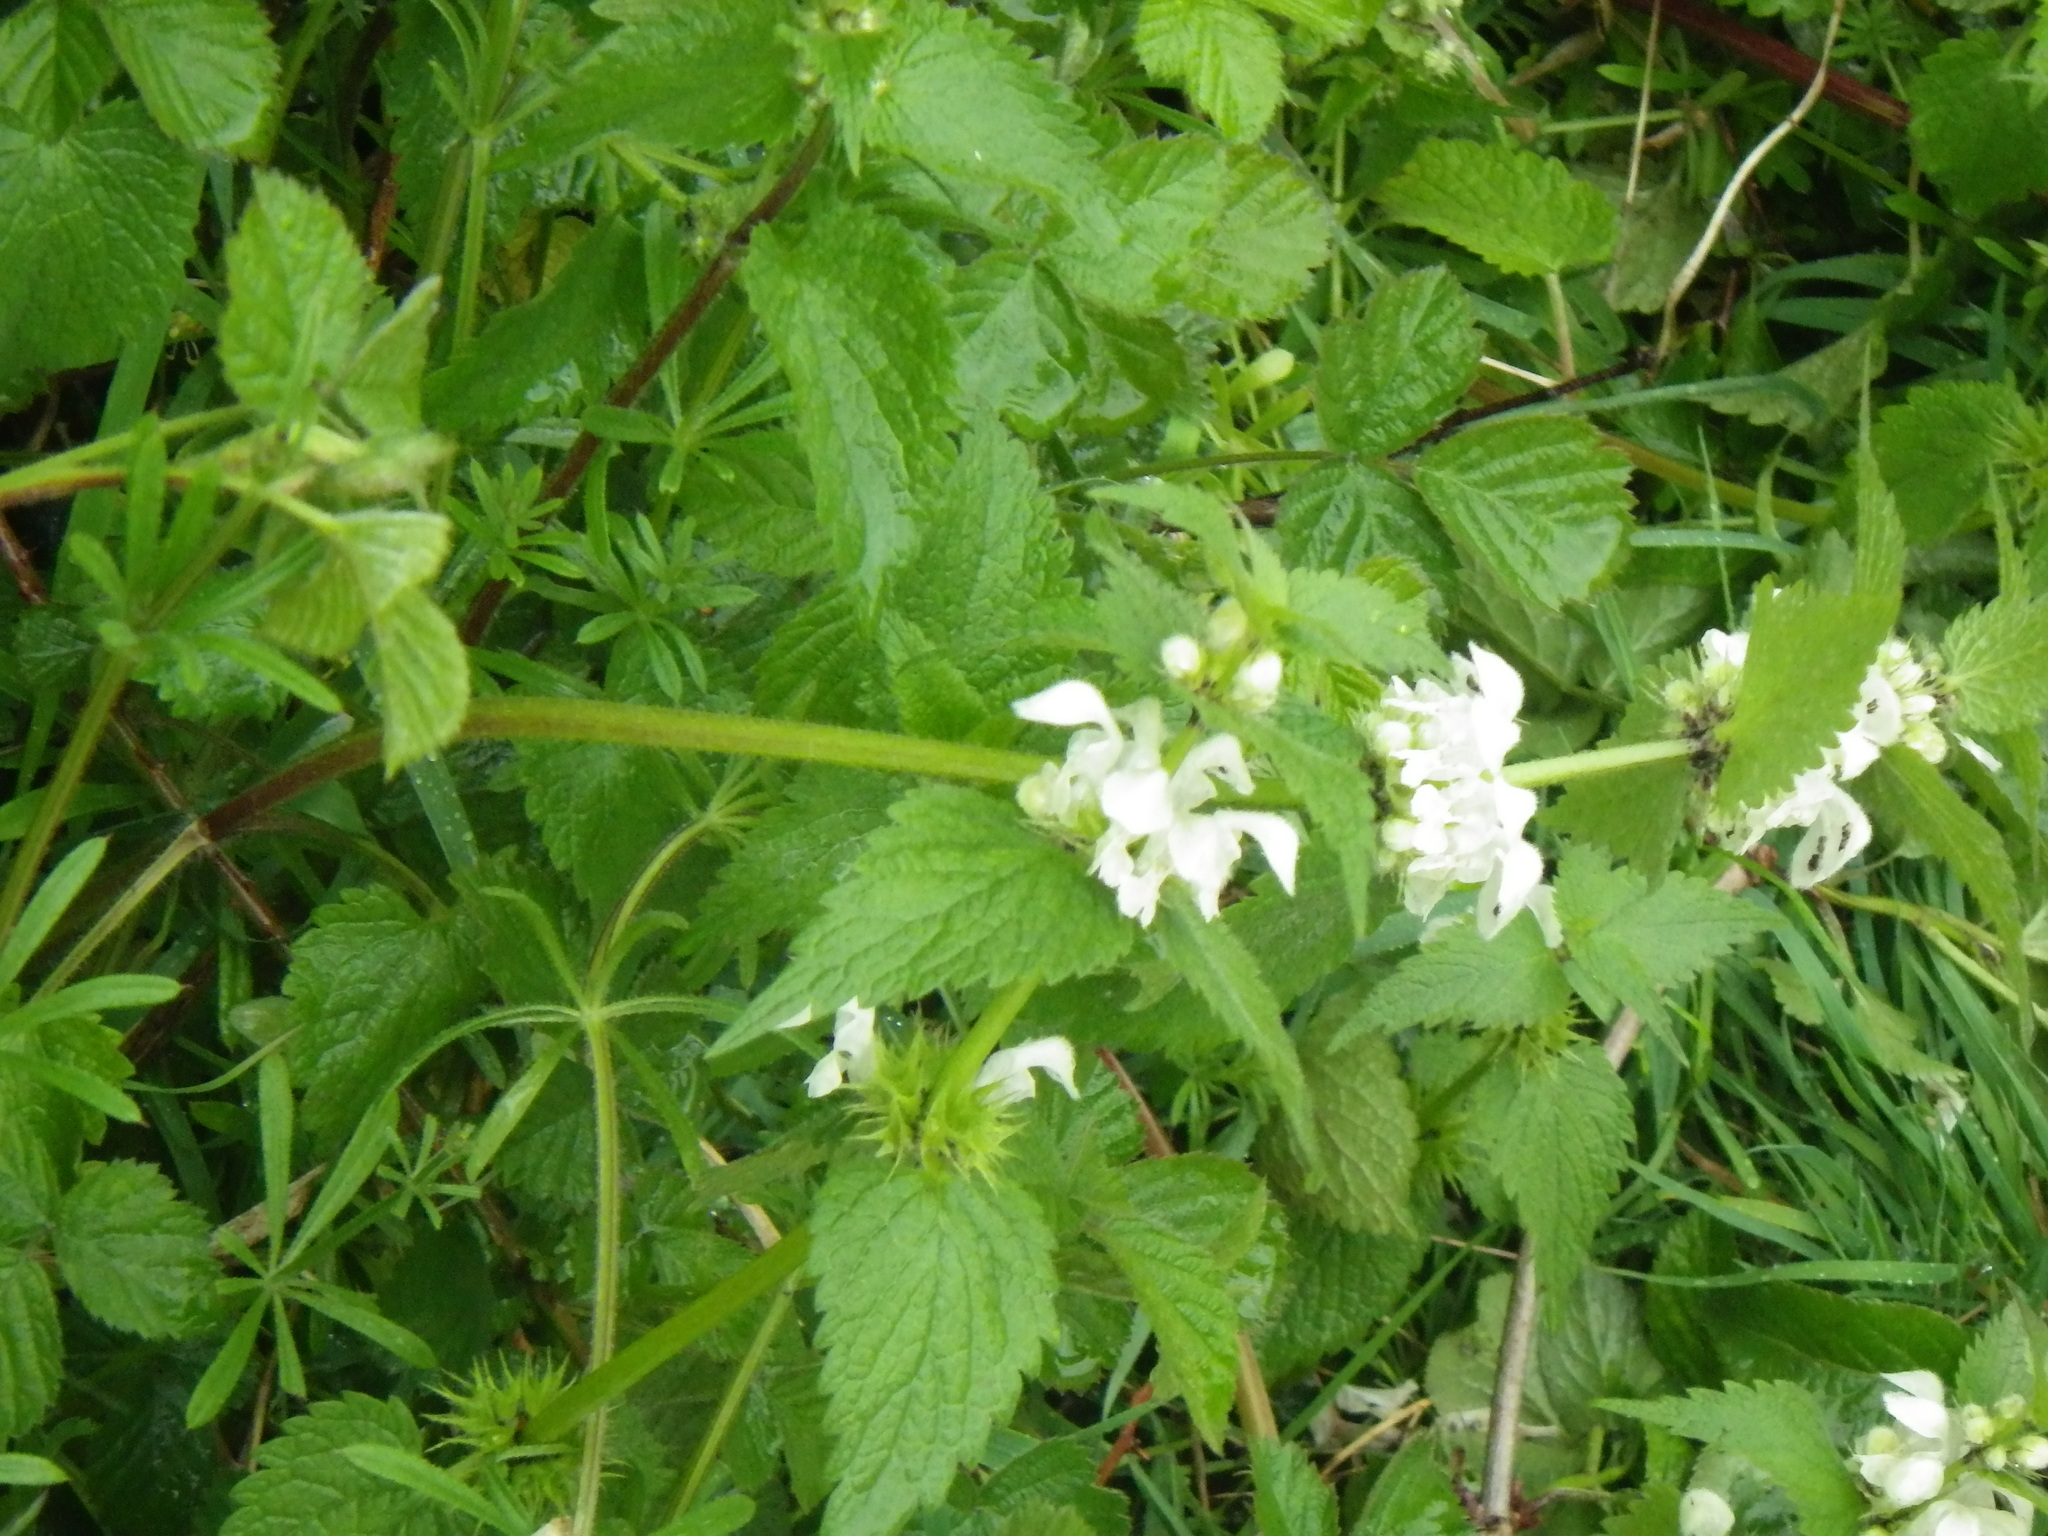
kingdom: Plantae
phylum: Tracheophyta
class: Magnoliopsida
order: Lamiales
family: Lamiaceae
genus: Lamium
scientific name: Lamium album
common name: White dead-nettle
